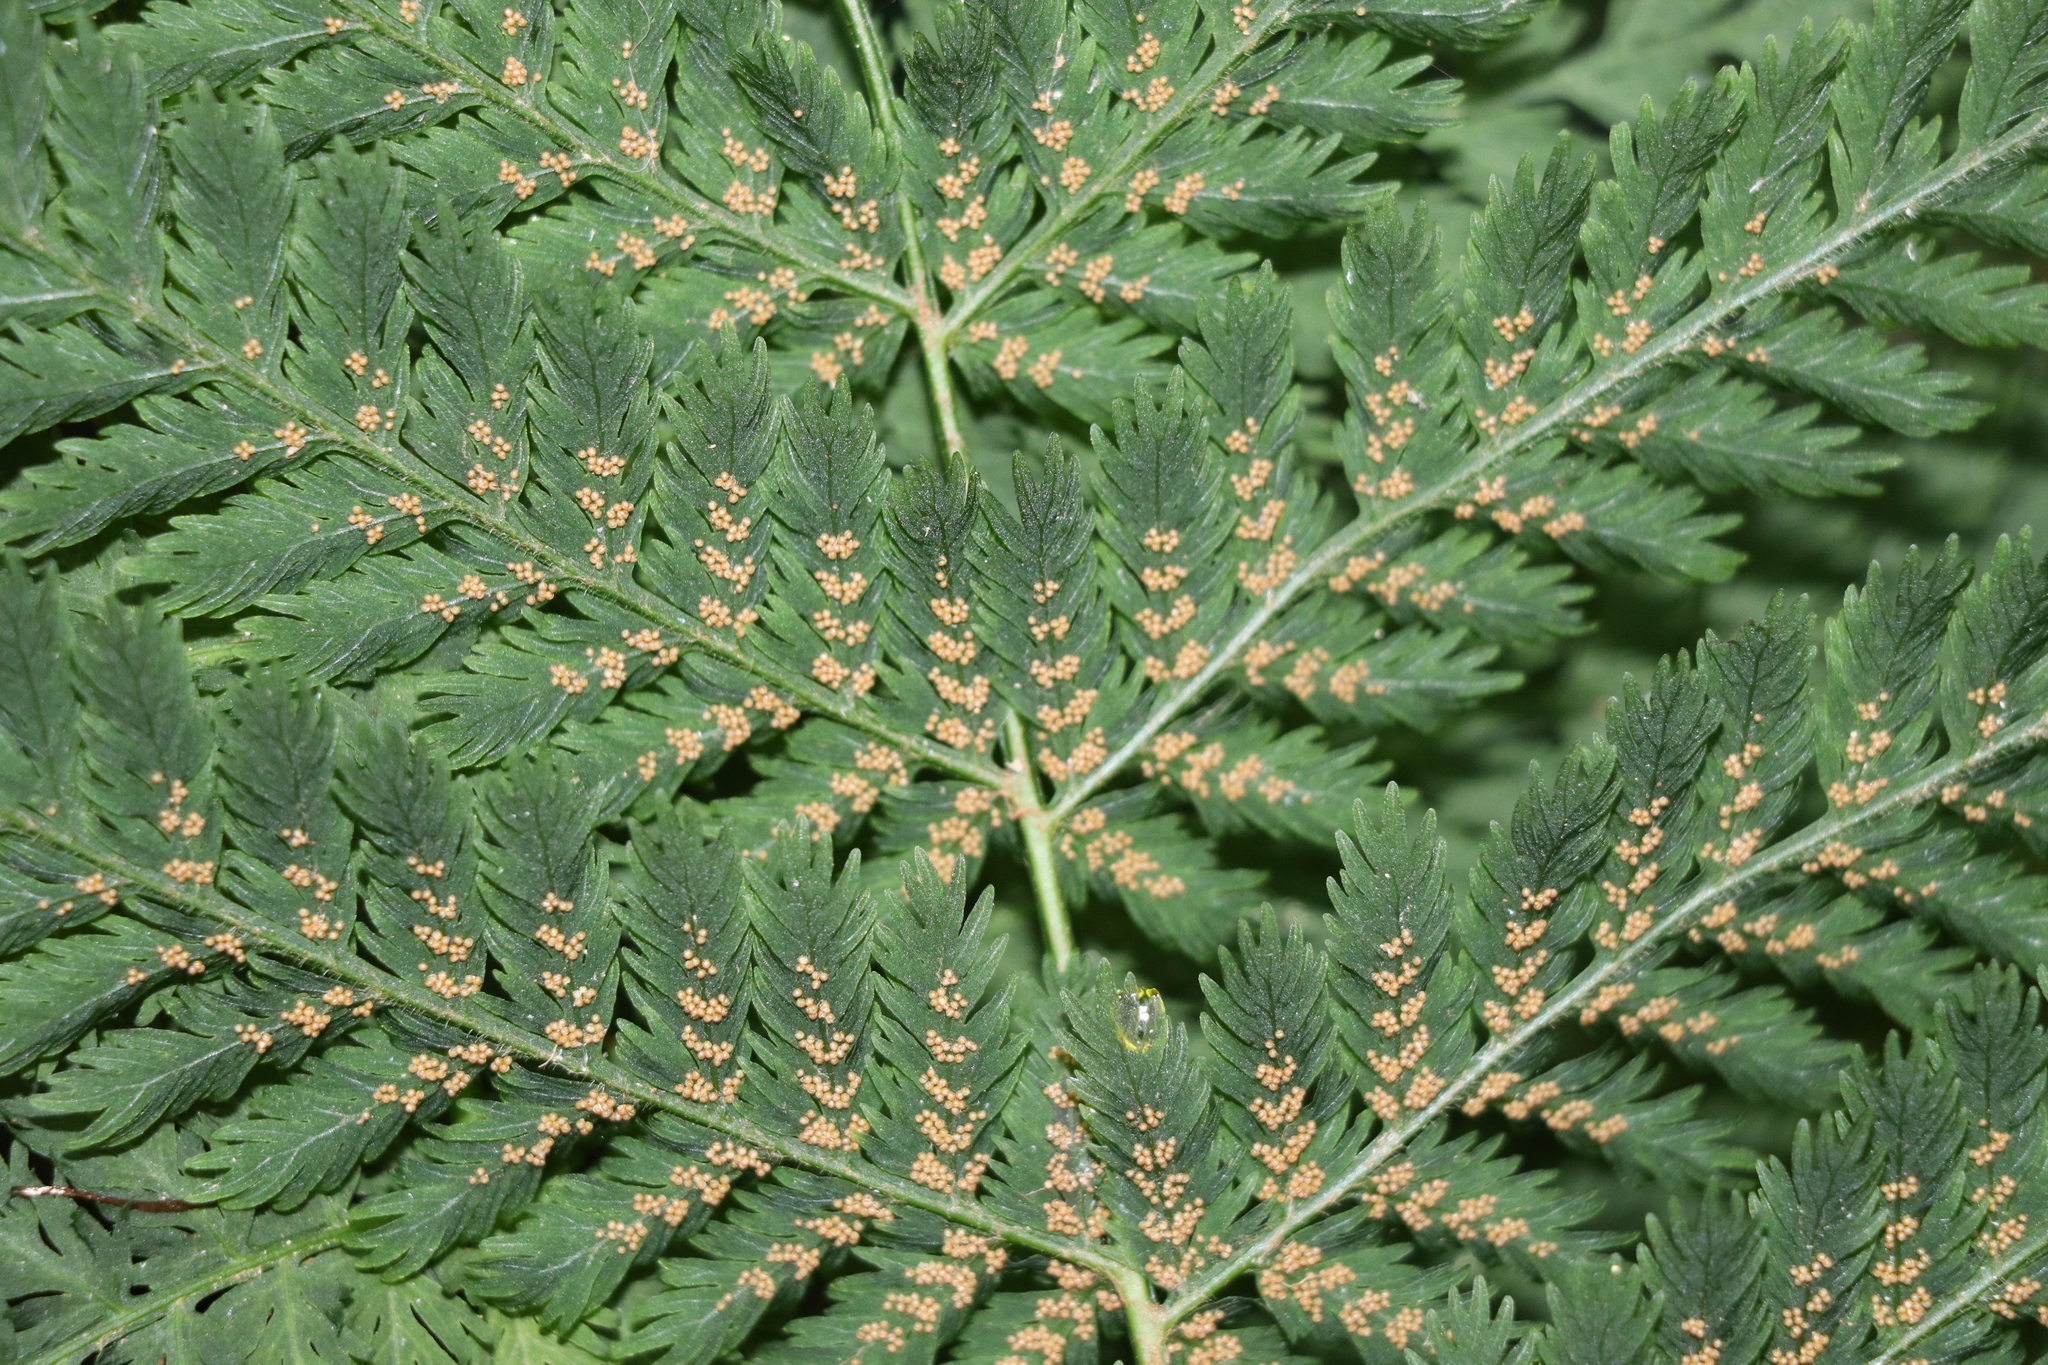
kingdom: Plantae
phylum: Tracheophyta
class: Polypodiopsida
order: Osmundales
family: Osmundaceae
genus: Leptopteris
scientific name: Leptopteris hymenophylloides
